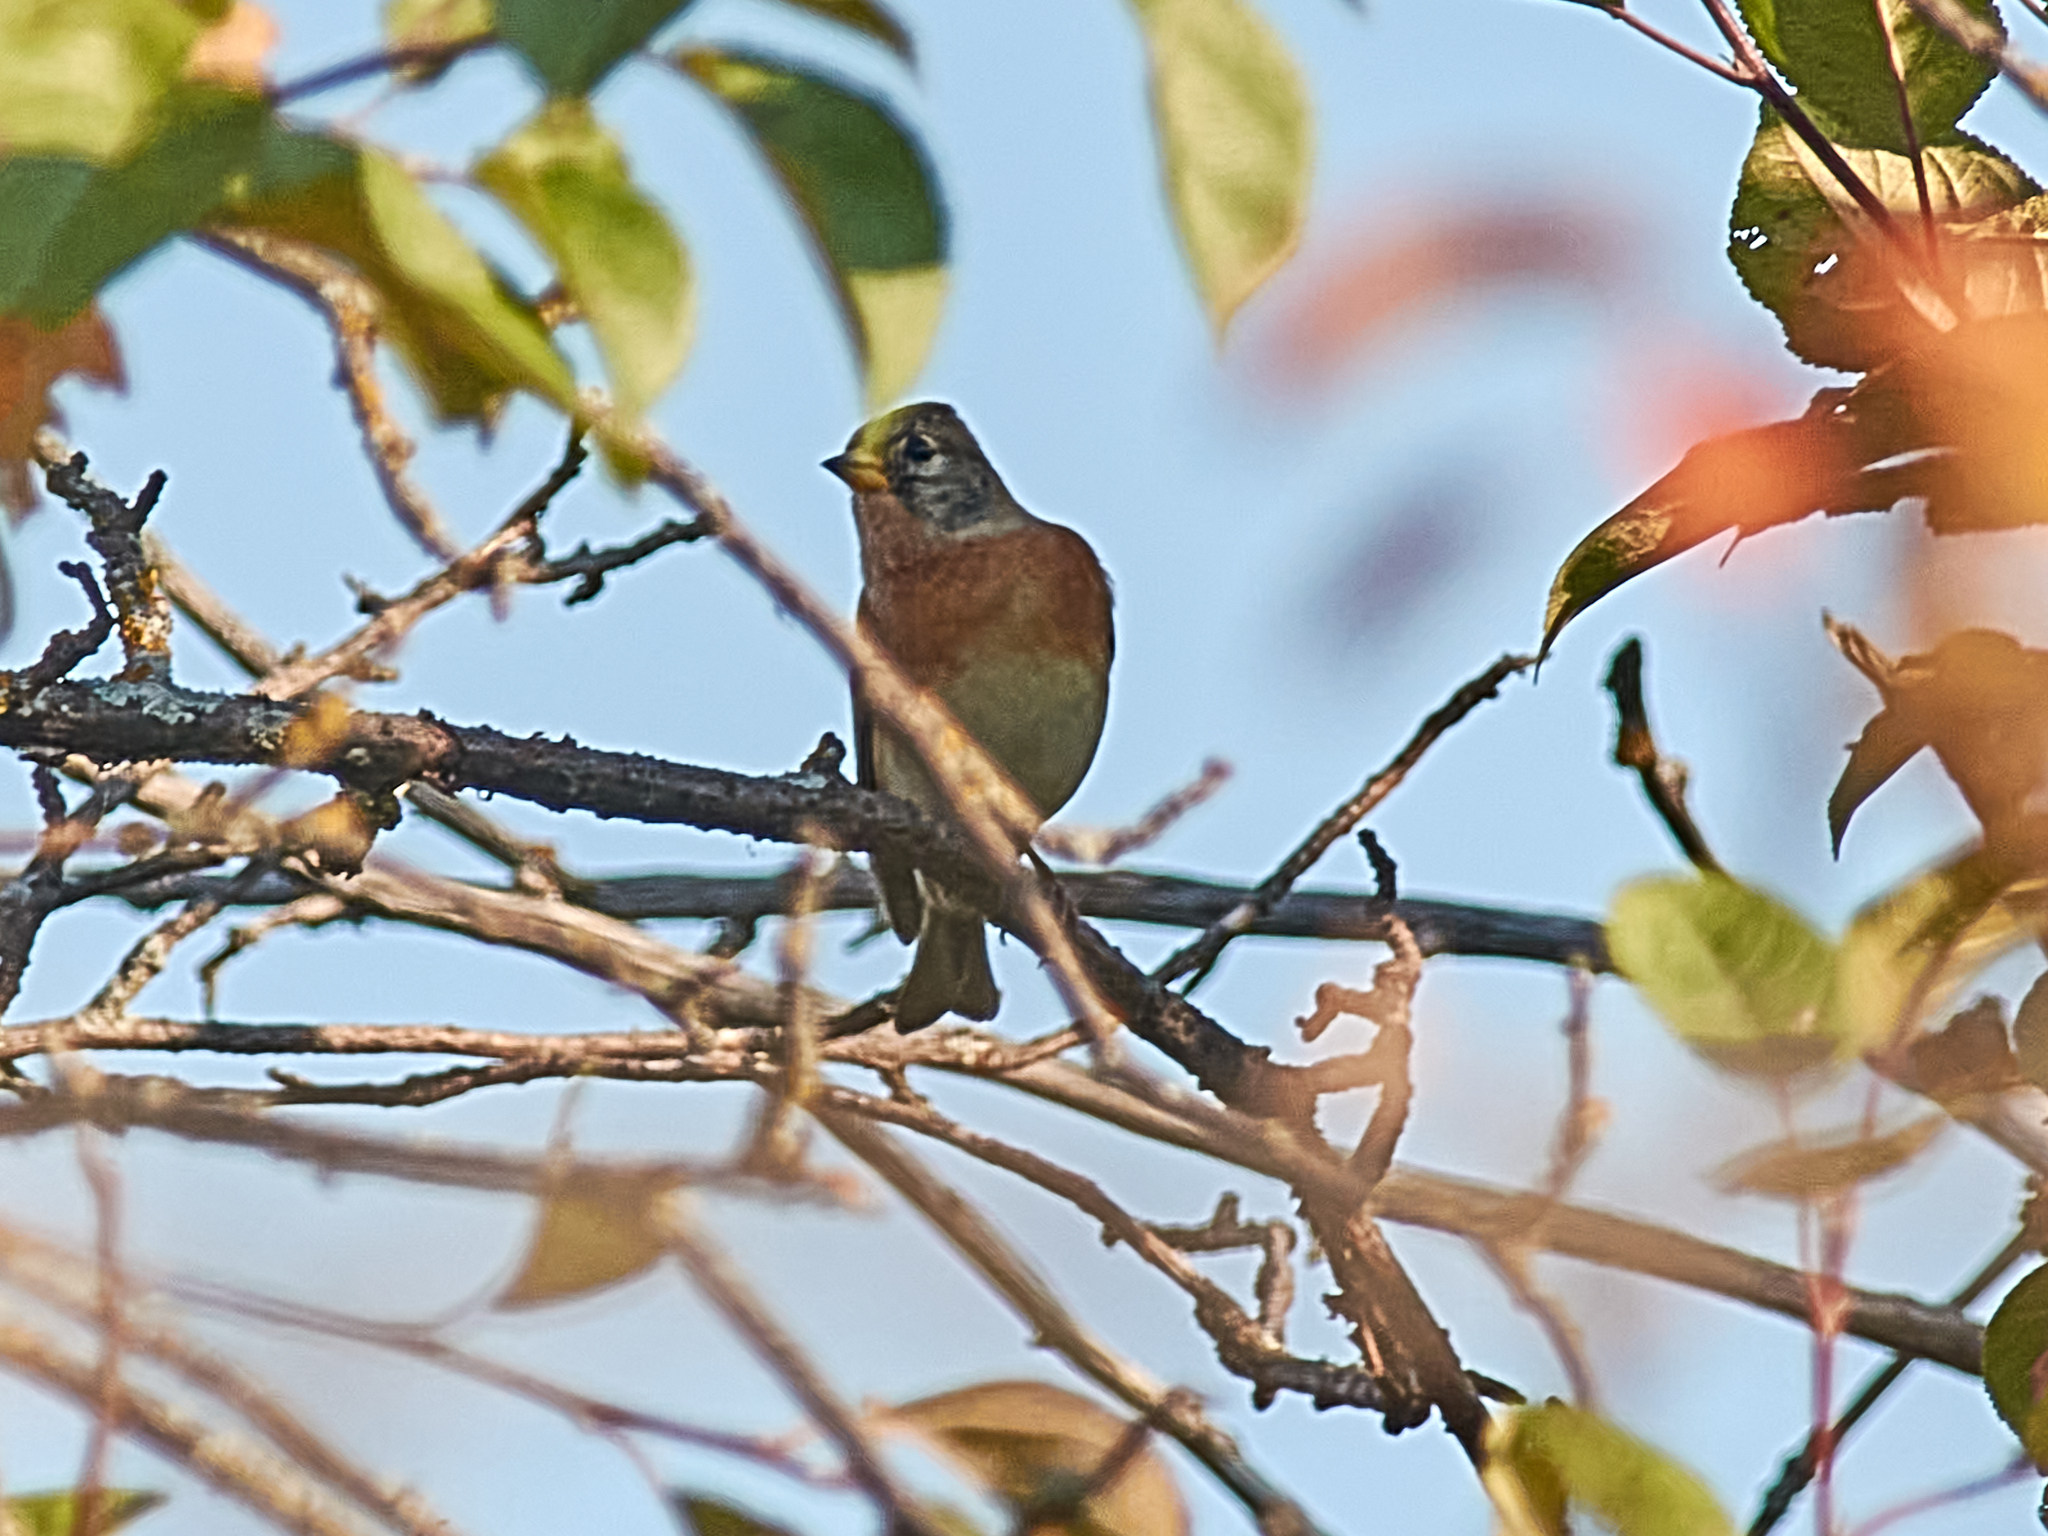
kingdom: Animalia
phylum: Chordata
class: Aves
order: Passeriformes
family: Fringillidae
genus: Fringilla
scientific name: Fringilla montifringilla
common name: Brambling
